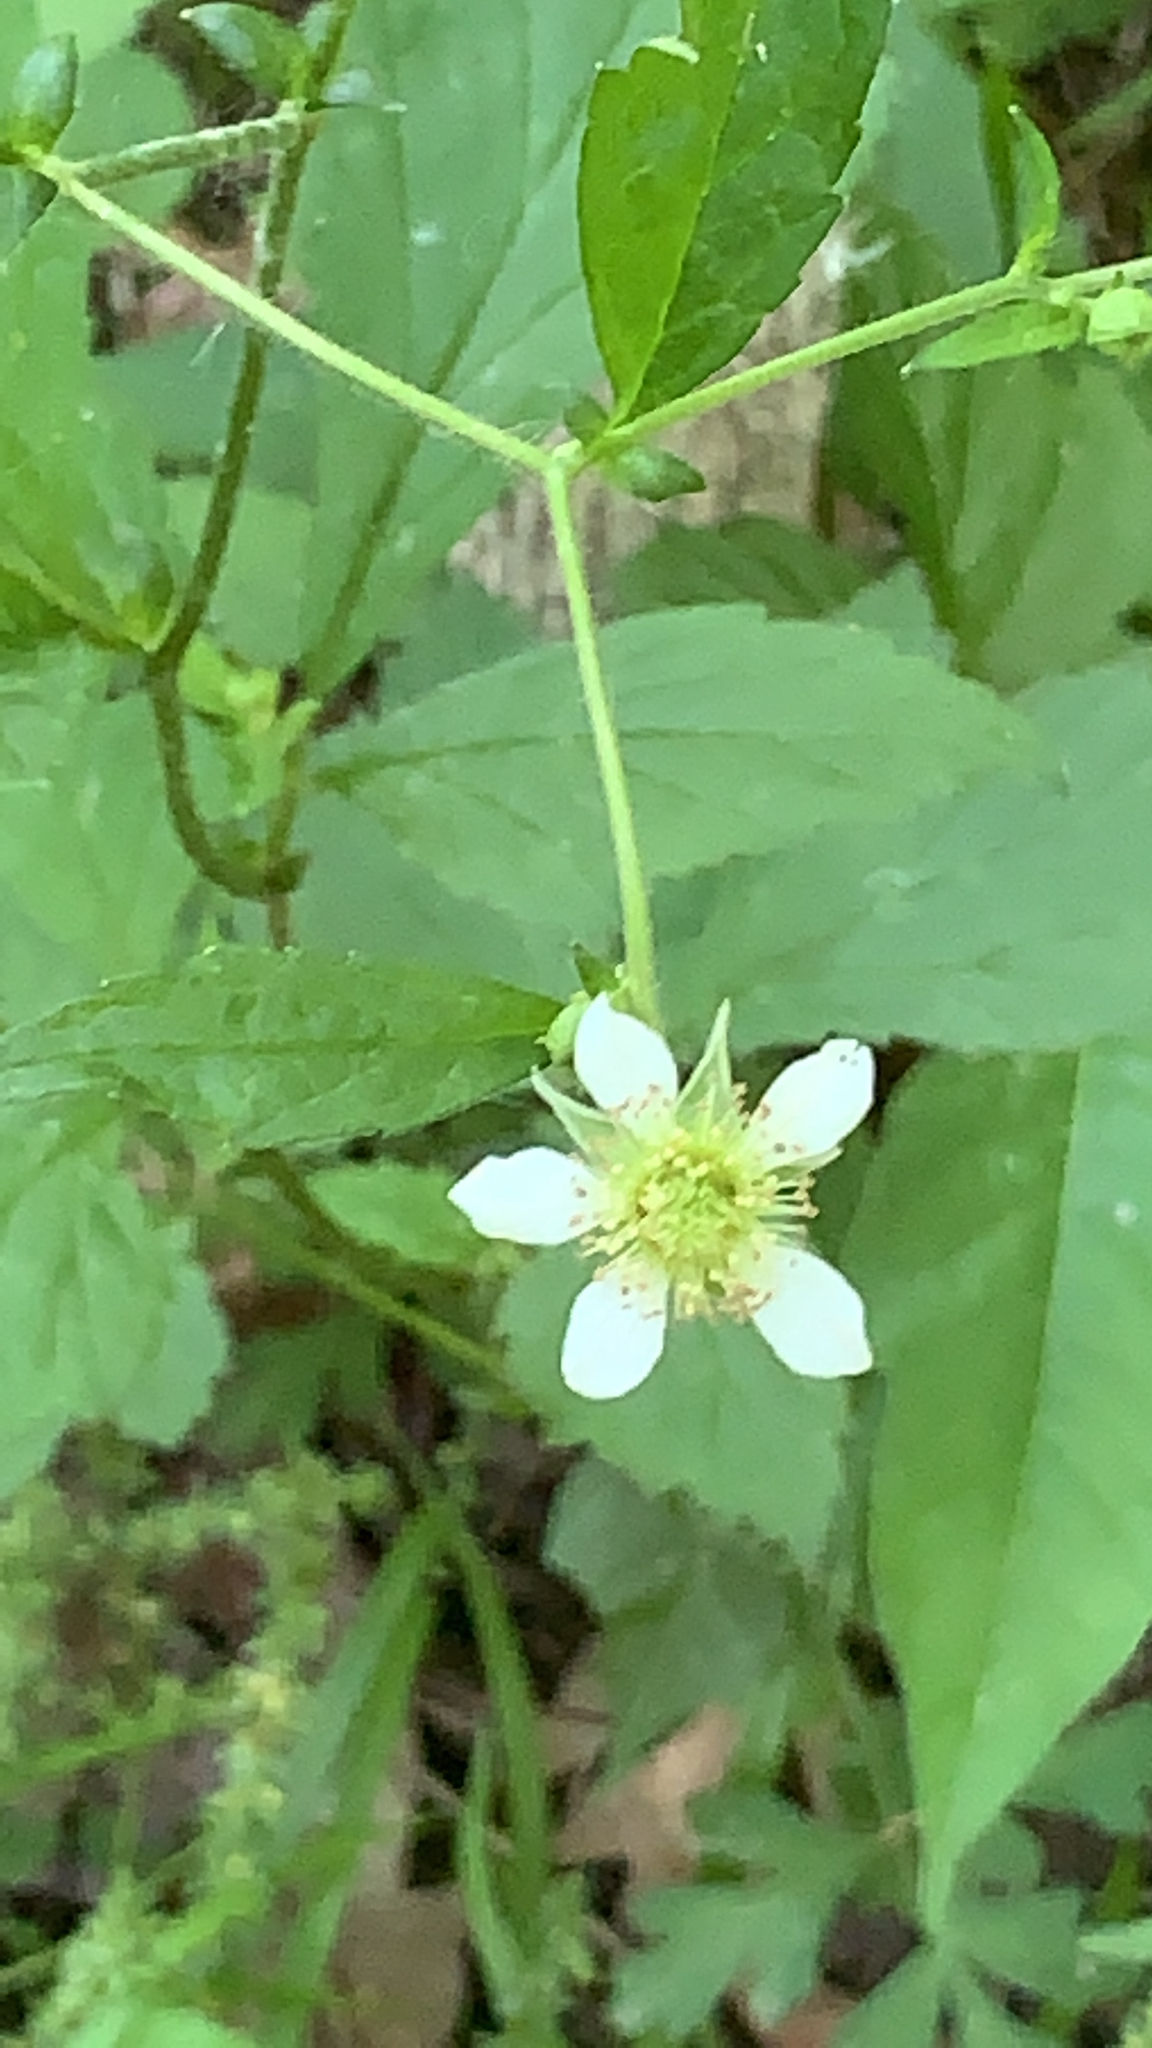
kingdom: Plantae
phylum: Tracheophyta
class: Magnoliopsida
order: Rosales
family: Rosaceae
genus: Geum
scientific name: Geum canadense
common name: White avens
